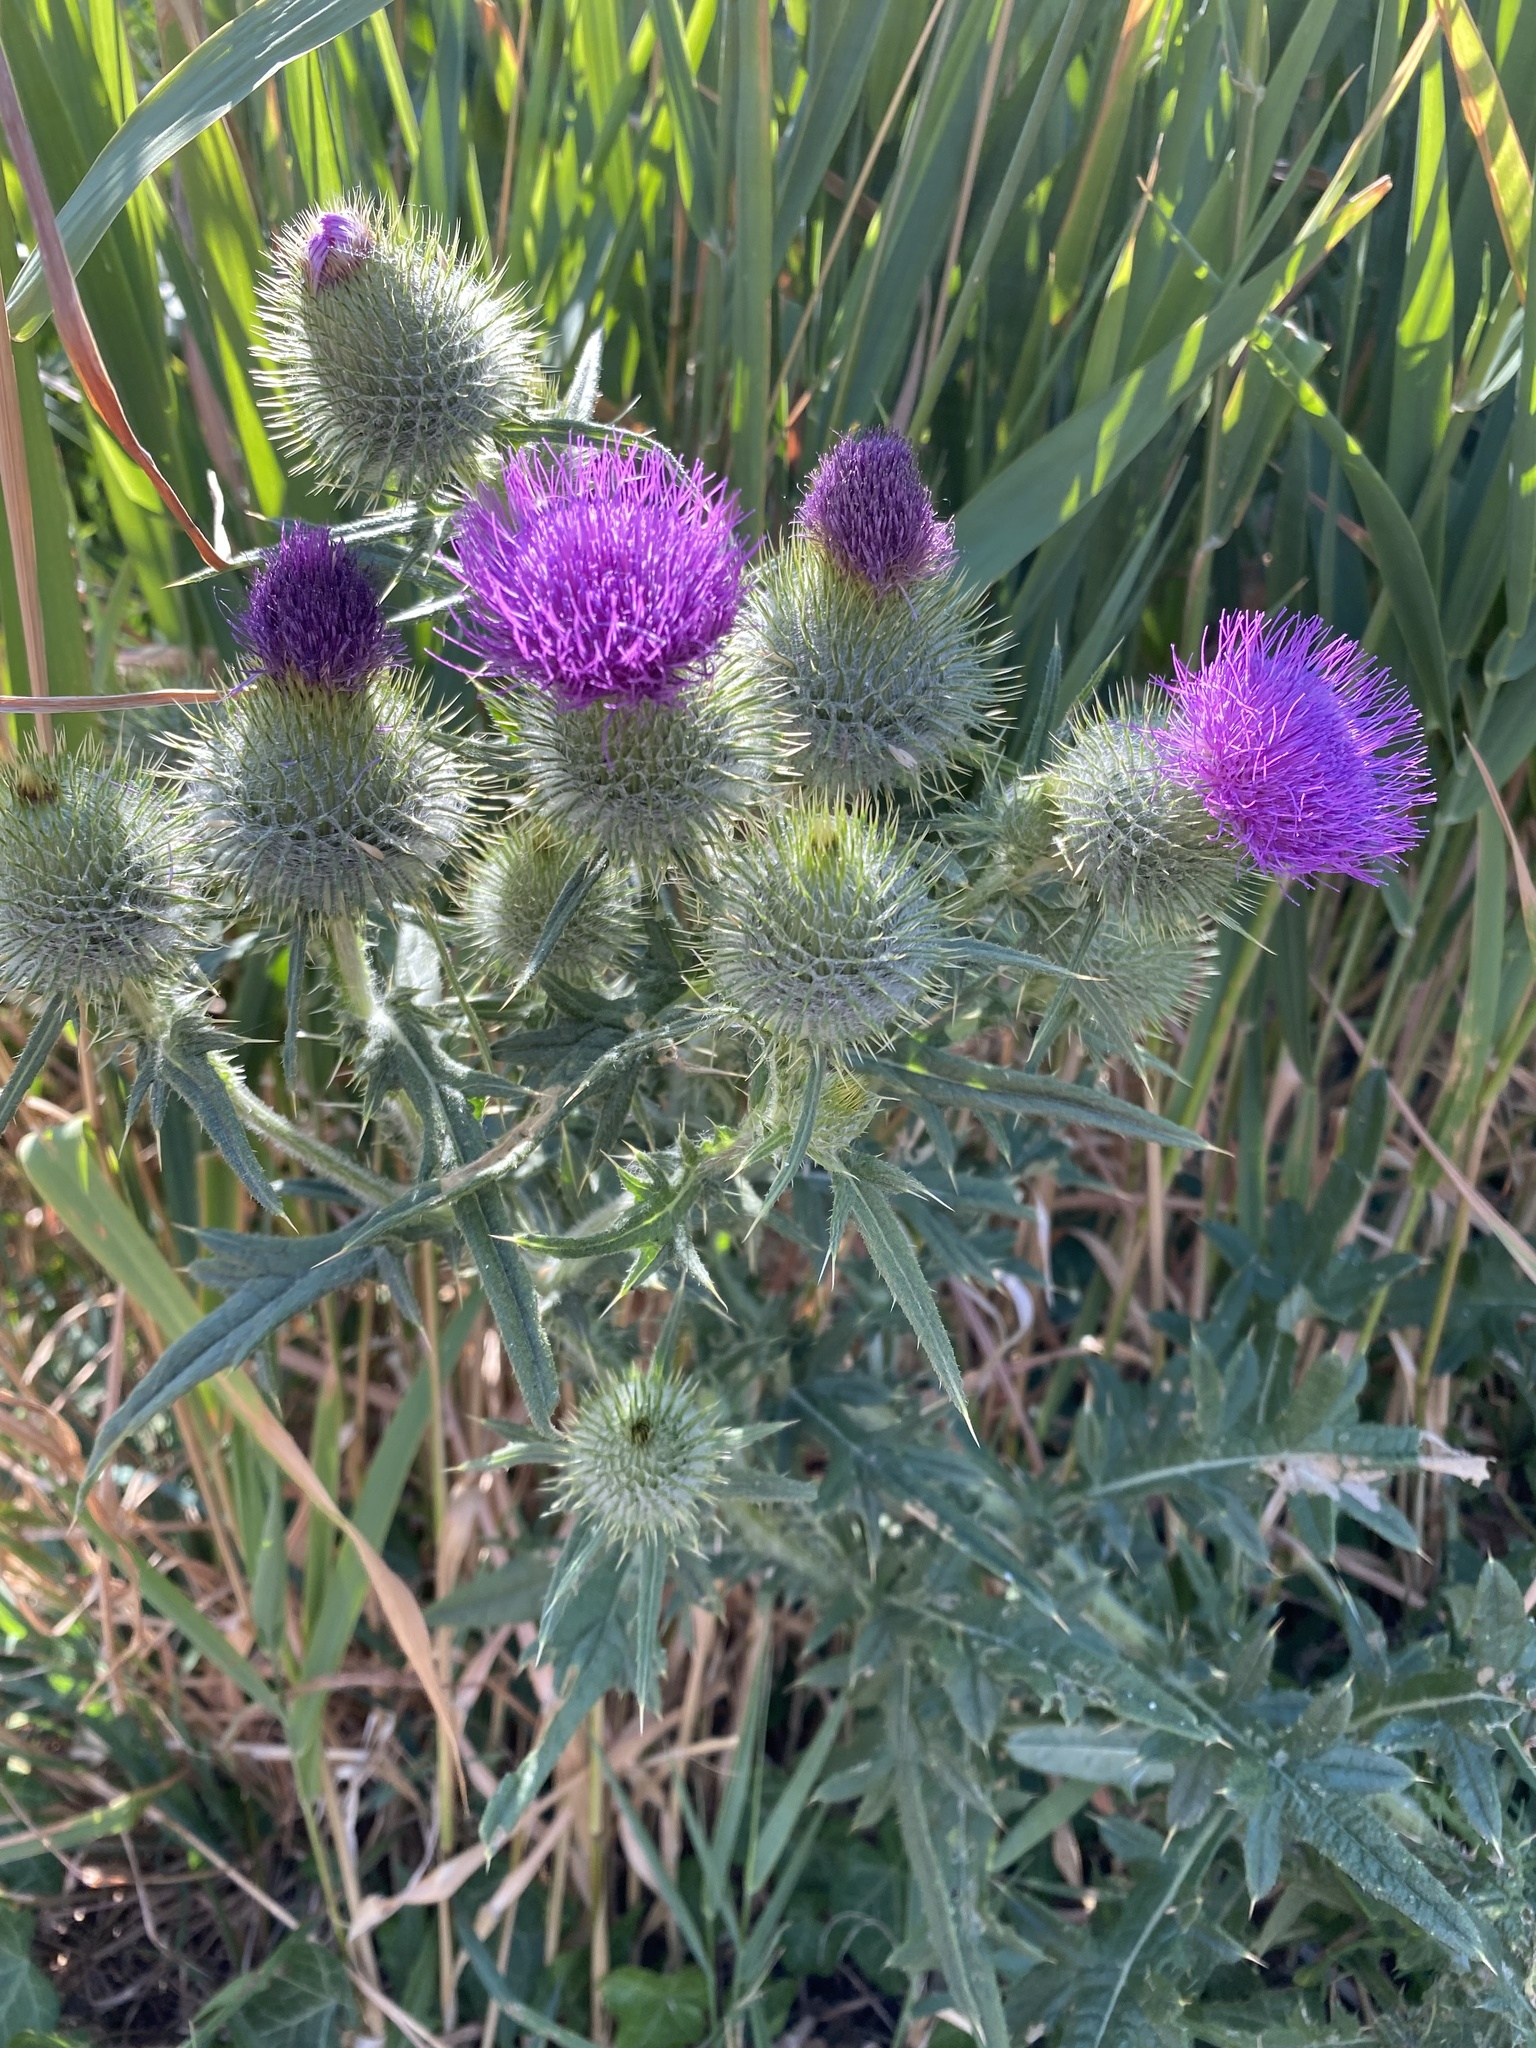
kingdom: Plantae
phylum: Tracheophyta
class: Magnoliopsida
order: Asterales
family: Asteraceae
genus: Cirsium
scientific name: Cirsium vulgare
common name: Bull thistle
